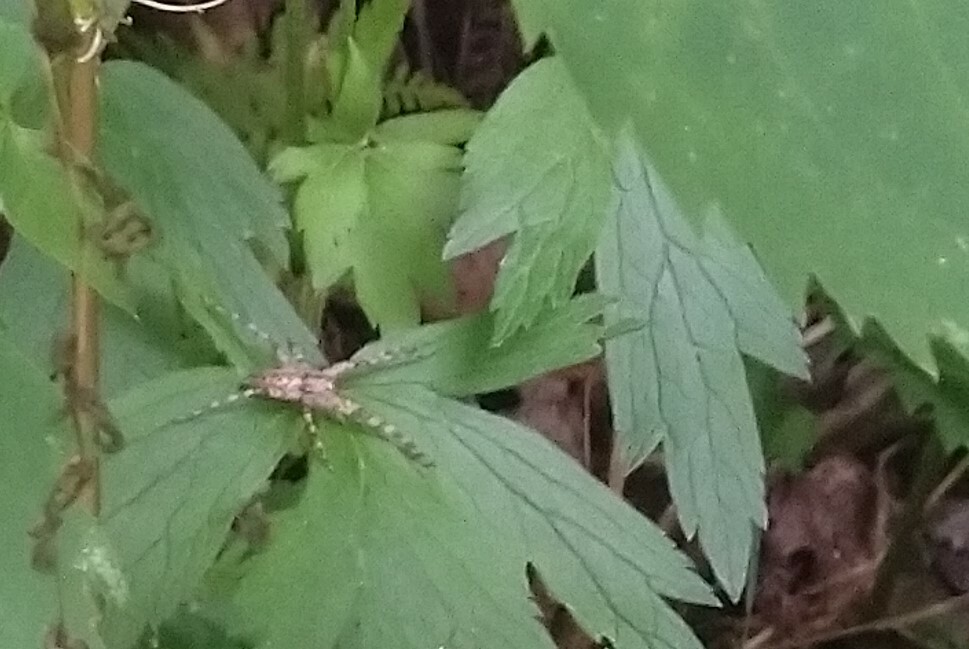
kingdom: Animalia
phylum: Arthropoda
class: Arachnida
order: Araneae
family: Pisauridae
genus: Pisaurina
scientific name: Pisaurina mira
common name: American nursery web spider
